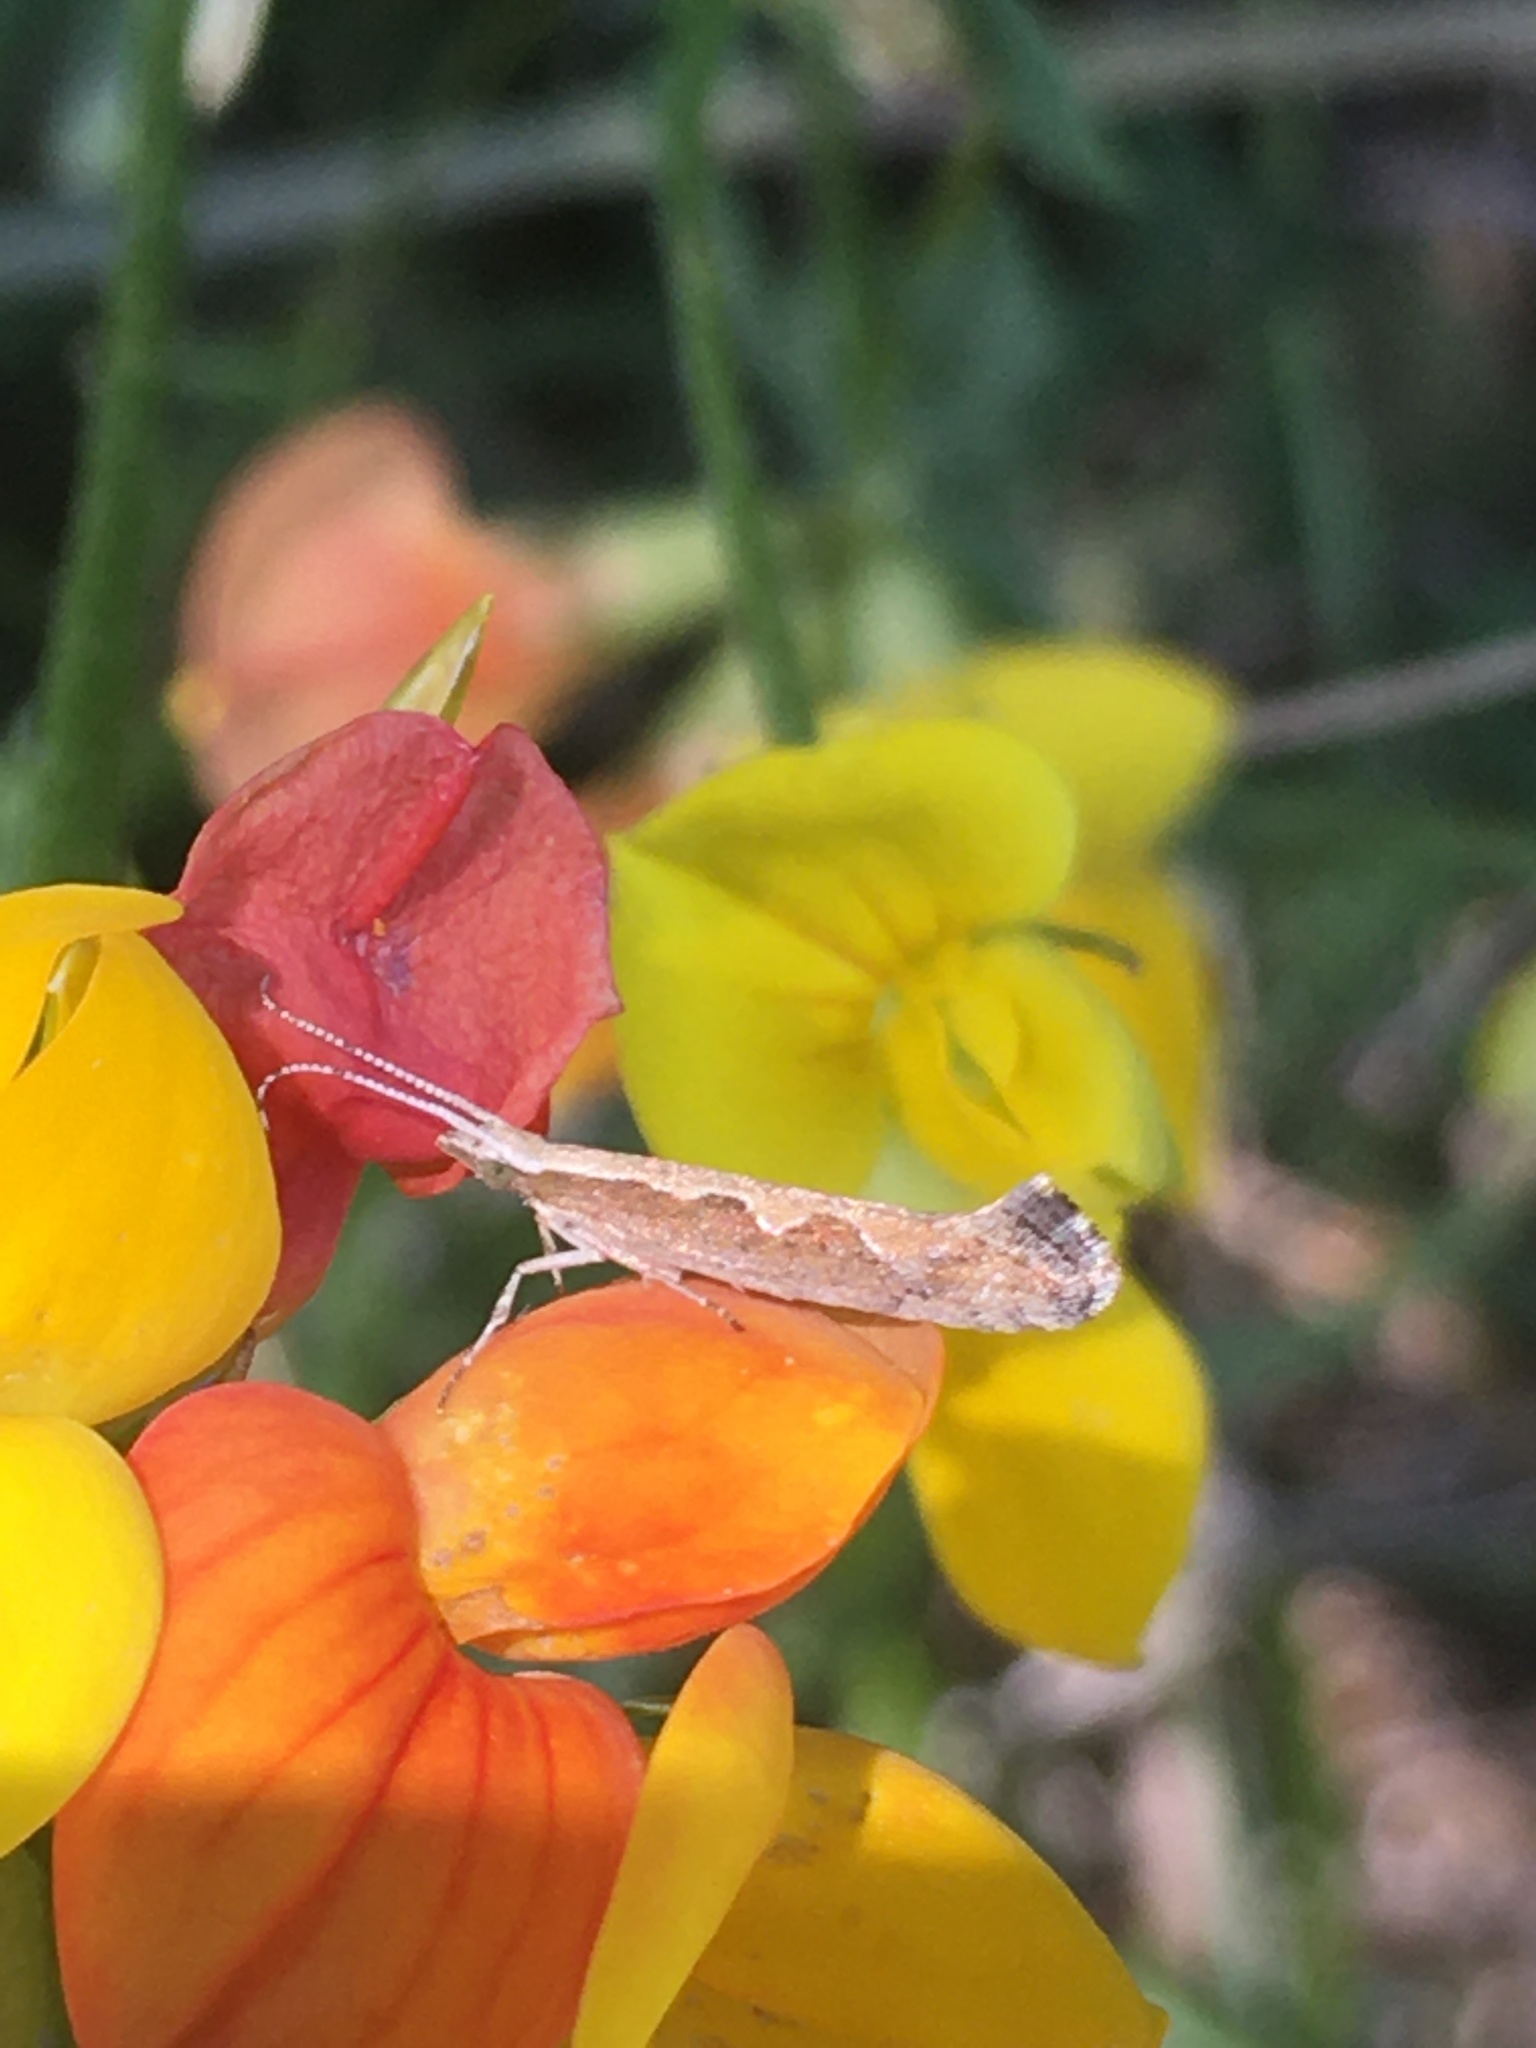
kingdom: Animalia
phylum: Arthropoda
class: Insecta
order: Lepidoptera
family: Plutellidae
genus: Plutella
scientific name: Plutella xylostella
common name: Diamond-back moth
